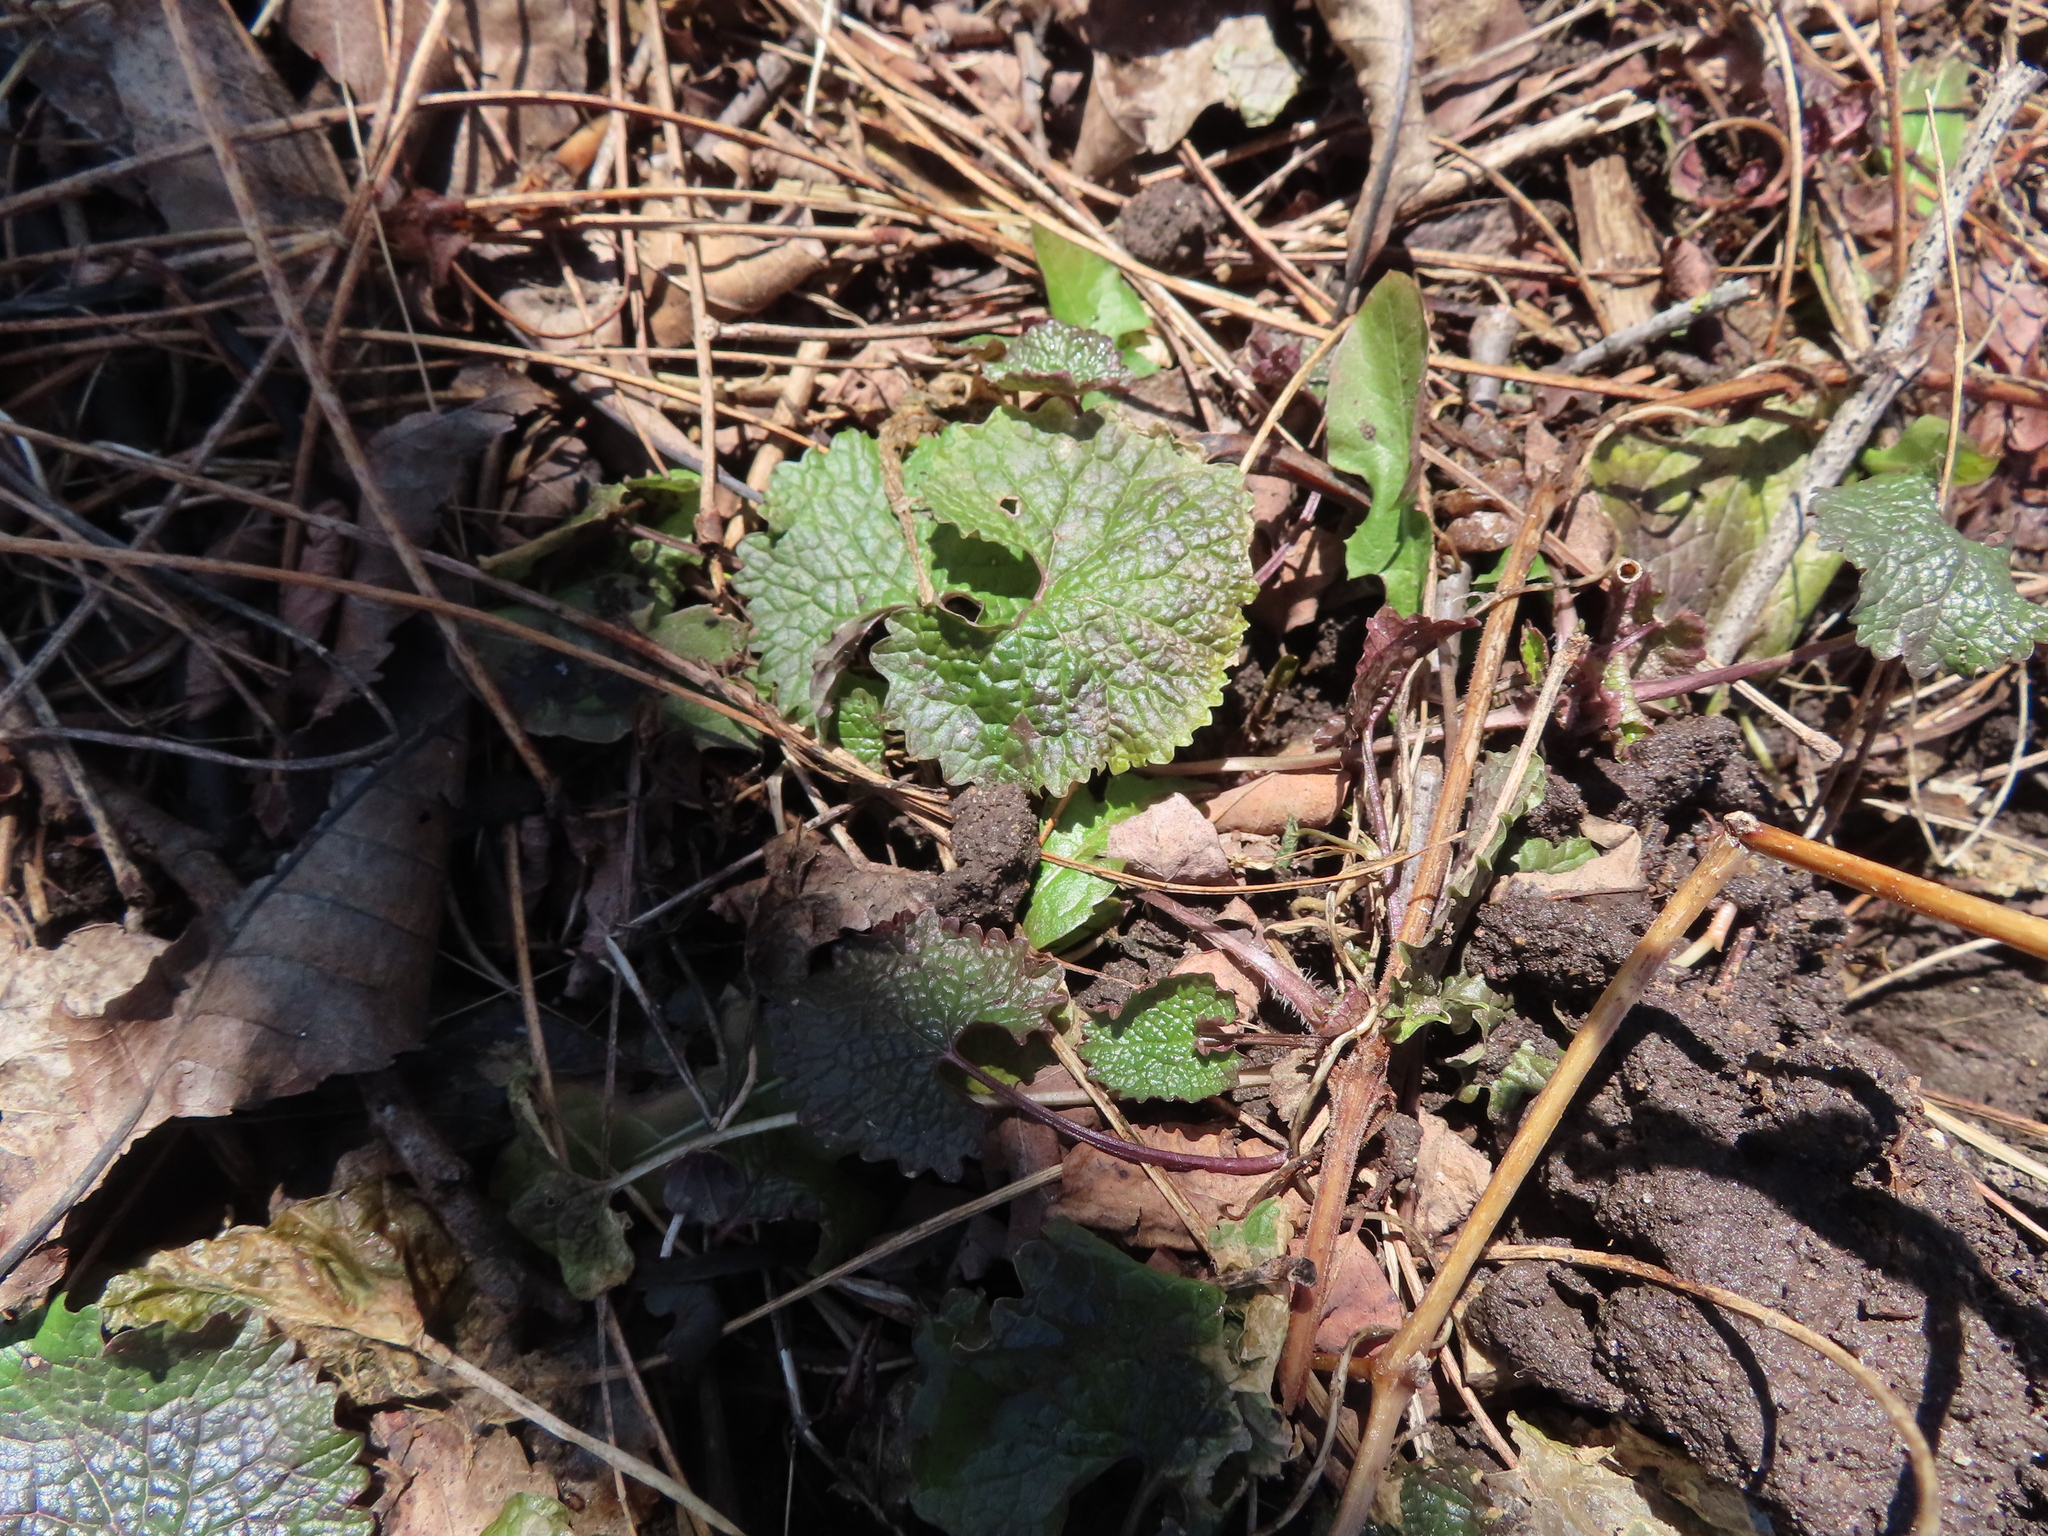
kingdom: Plantae
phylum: Tracheophyta
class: Magnoliopsida
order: Brassicales
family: Brassicaceae
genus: Alliaria
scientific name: Alliaria petiolata
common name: Garlic mustard
